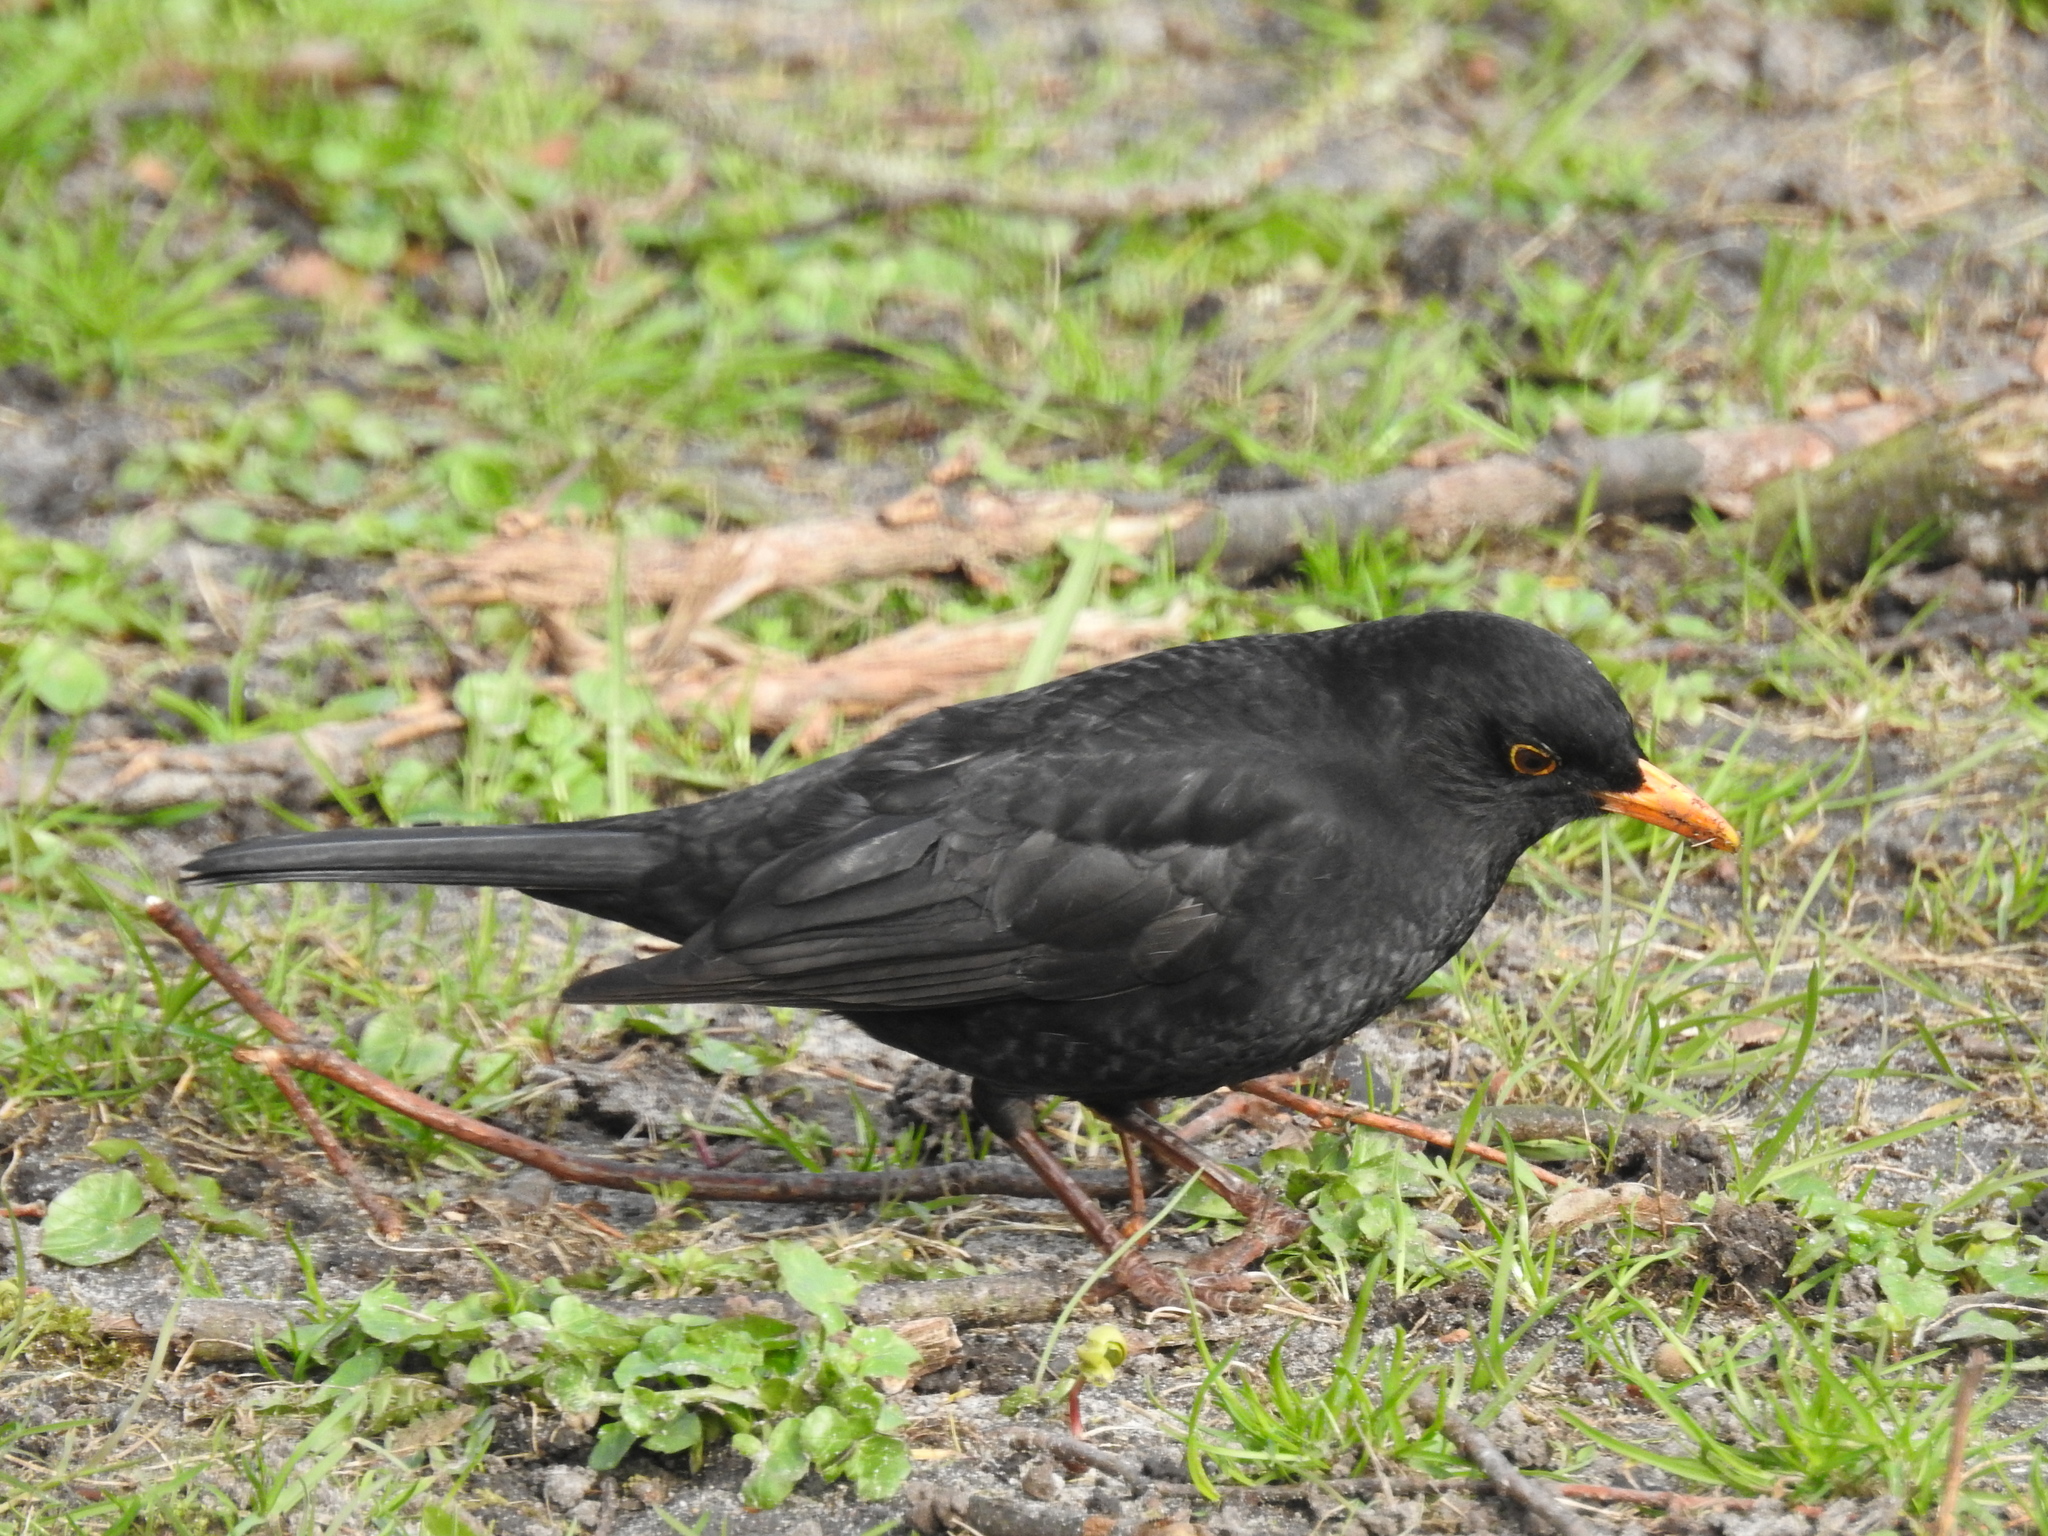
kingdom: Animalia
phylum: Chordata
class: Aves
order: Passeriformes
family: Turdidae
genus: Turdus
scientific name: Turdus merula
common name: Common blackbird
